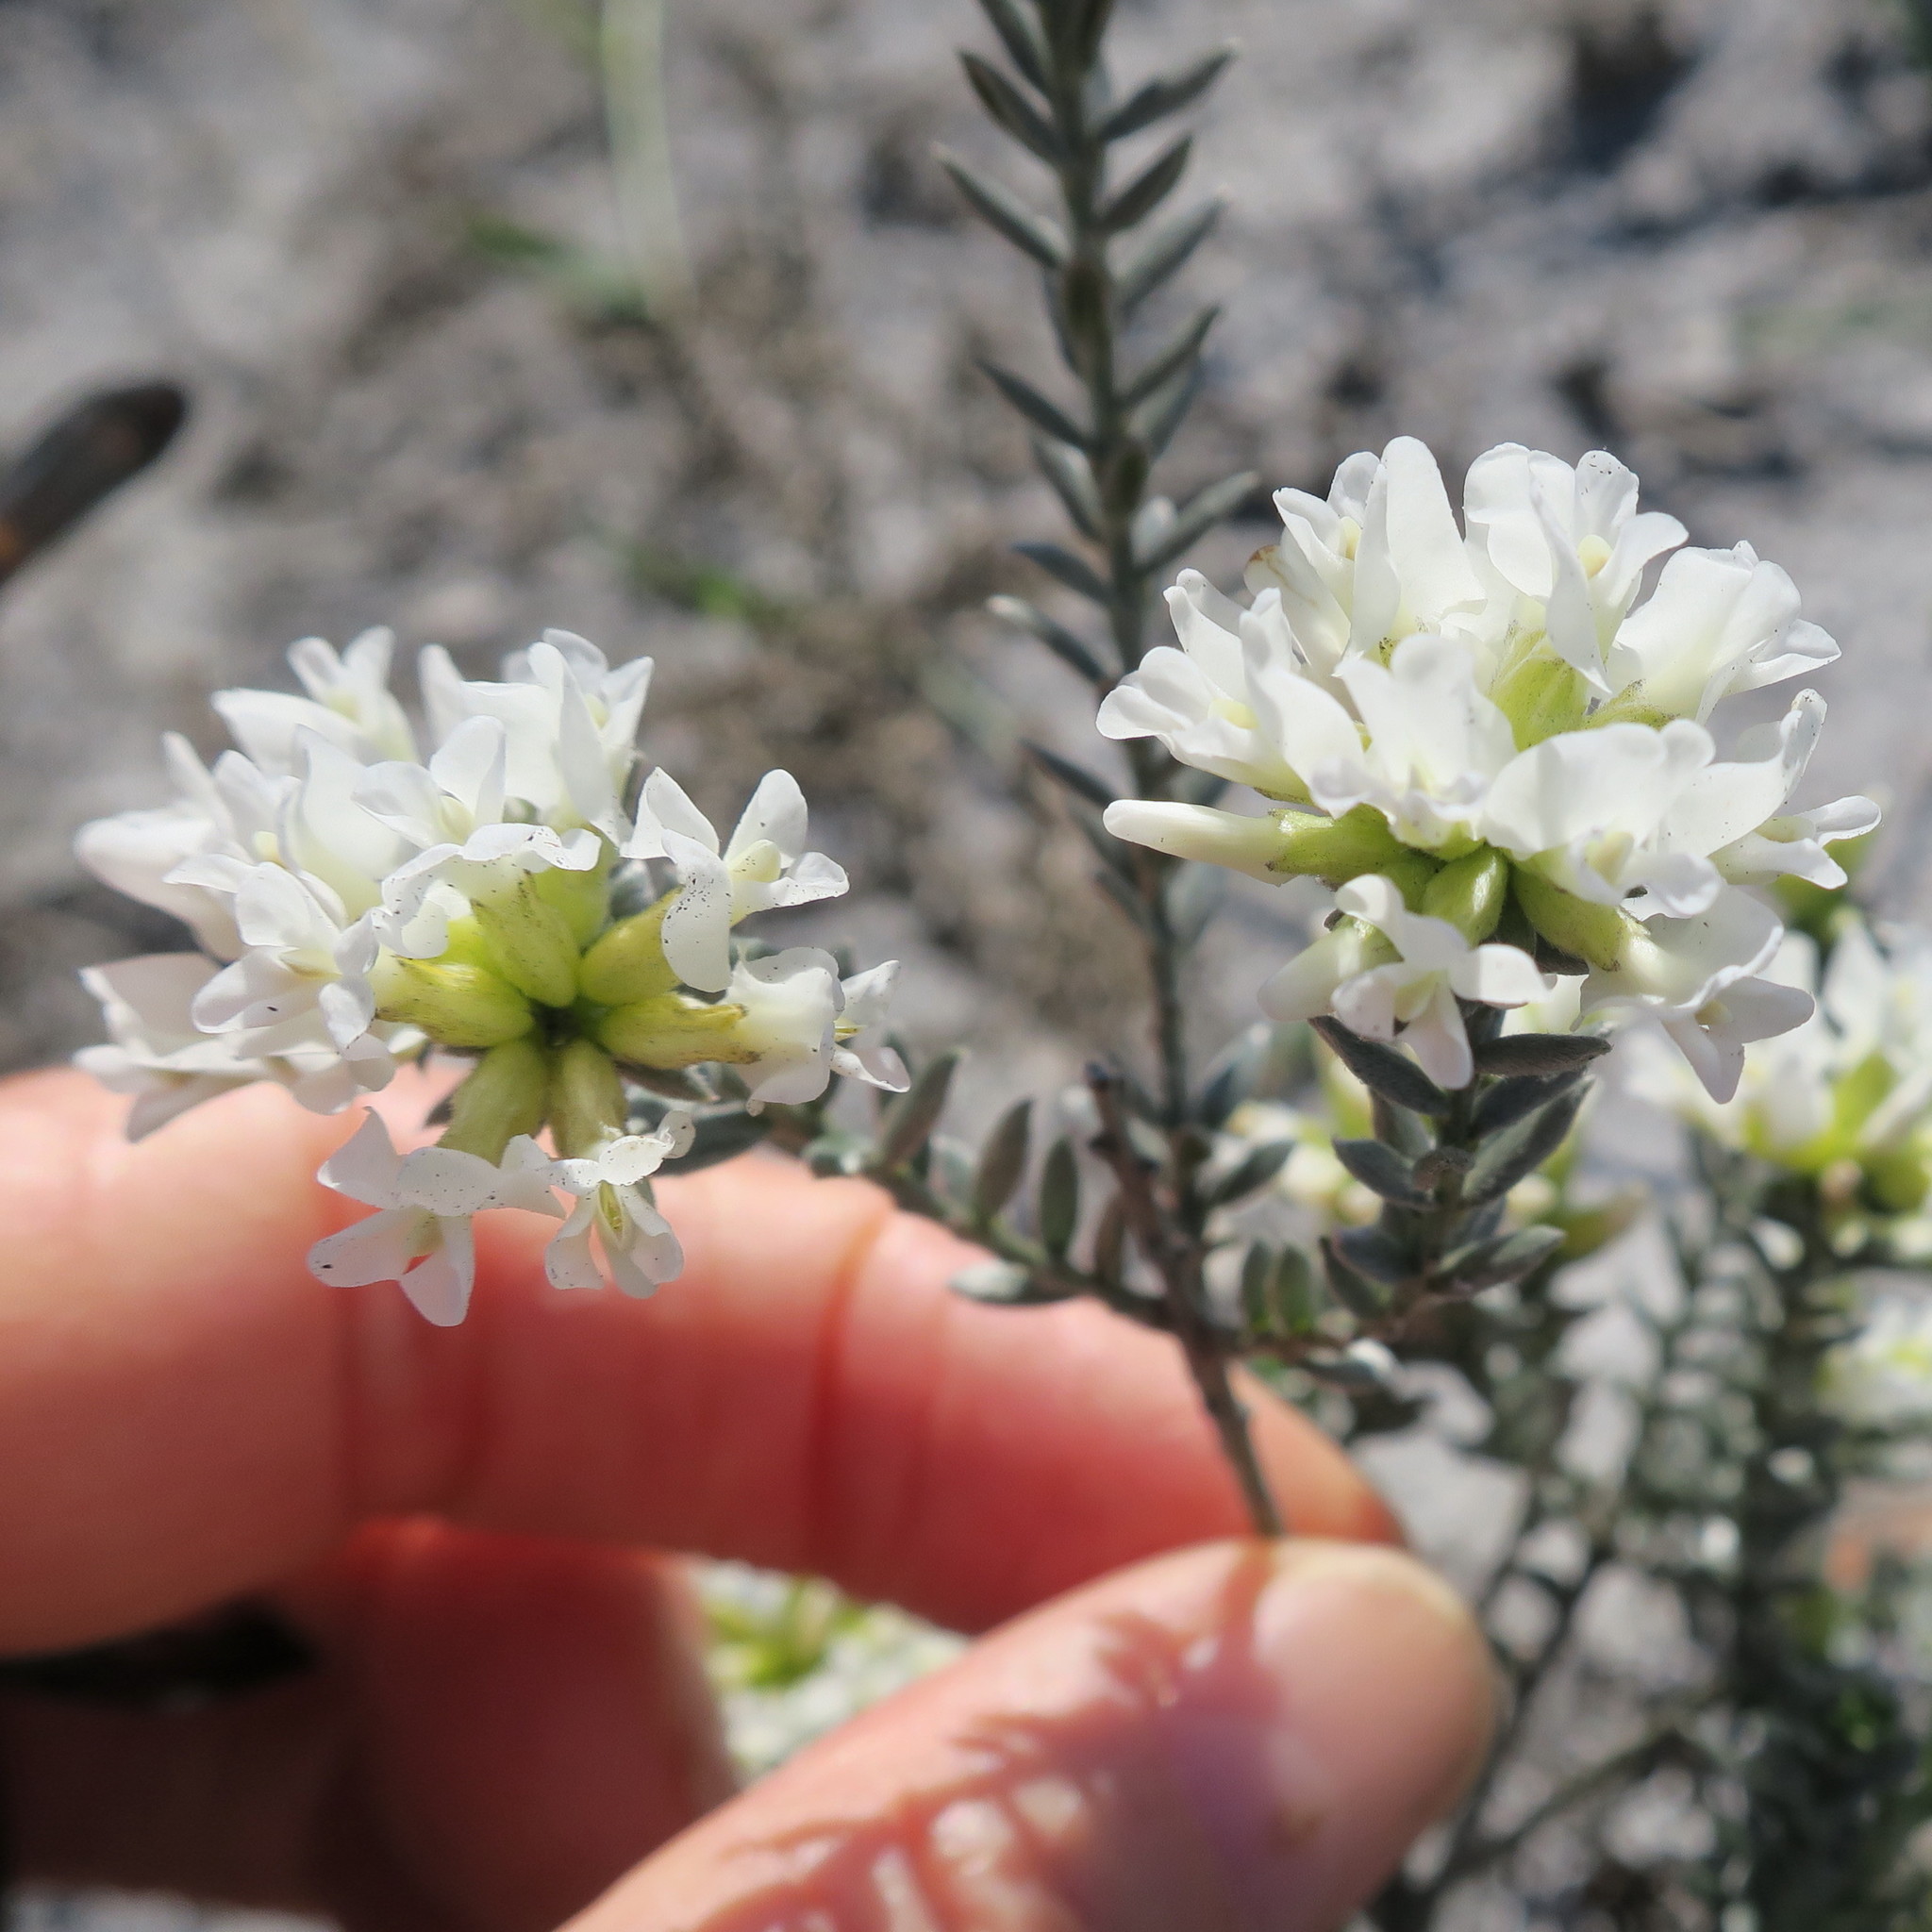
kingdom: Plantae
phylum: Tracheophyta
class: Magnoliopsida
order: Fabales
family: Fabaceae
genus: Amphithalea
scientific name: Amphithalea ericifolia
